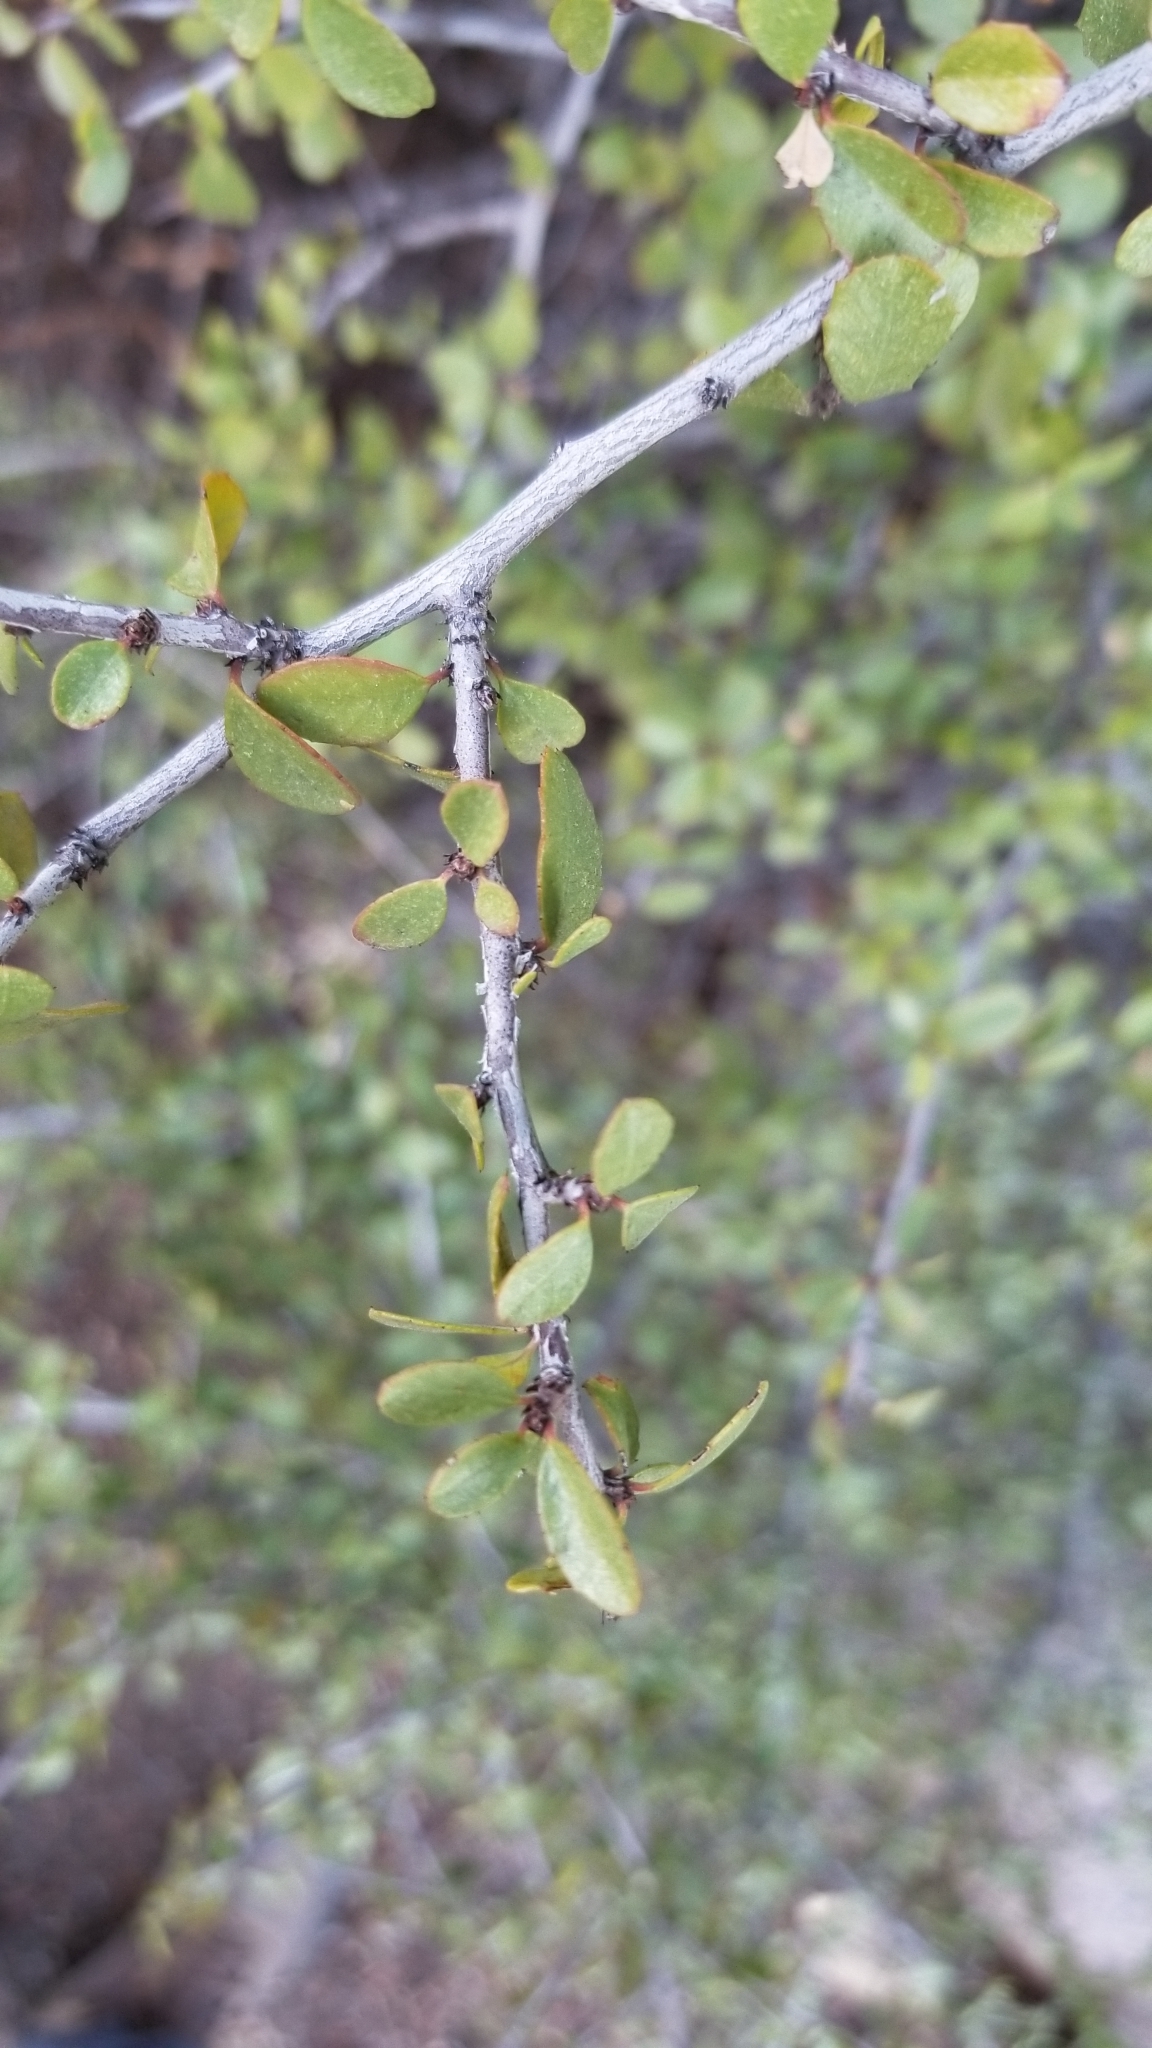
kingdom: Plantae
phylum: Tracheophyta
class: Magnoliopsida
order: Rosales
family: Rhamnaceae
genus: Endotropis
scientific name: Endotropis crocea
